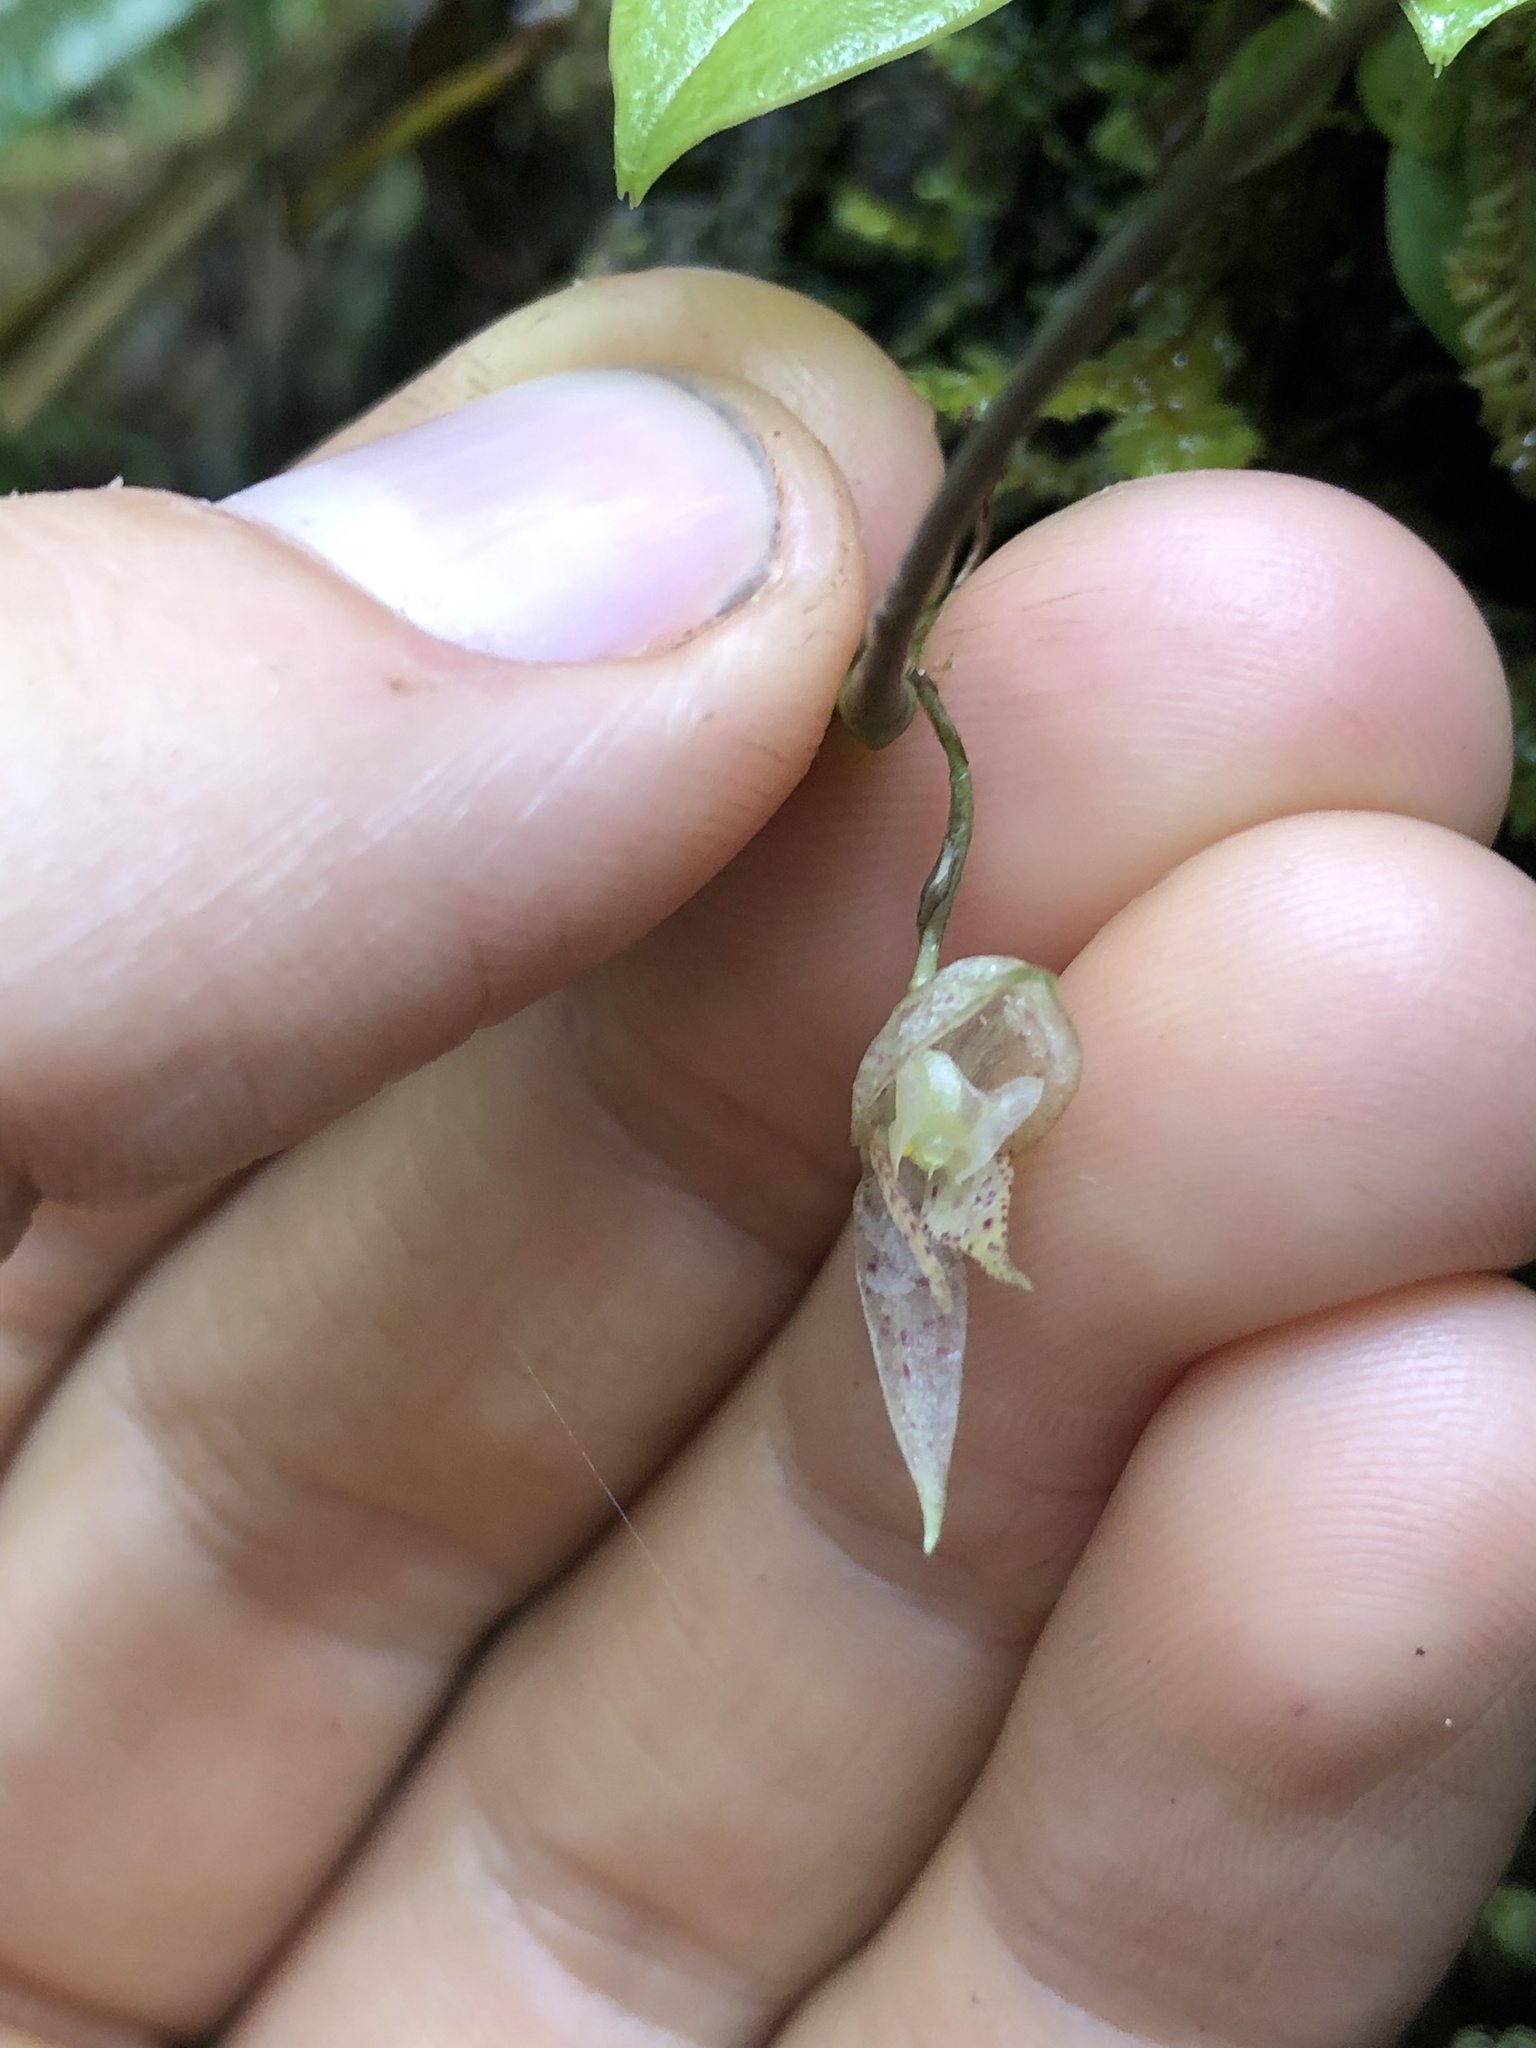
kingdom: Plantae
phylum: Tracheophyta
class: Liliopsida
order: Asparagales
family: Orchidaceae
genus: Pleurothallis
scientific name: Pleurothallis pulvinaris
